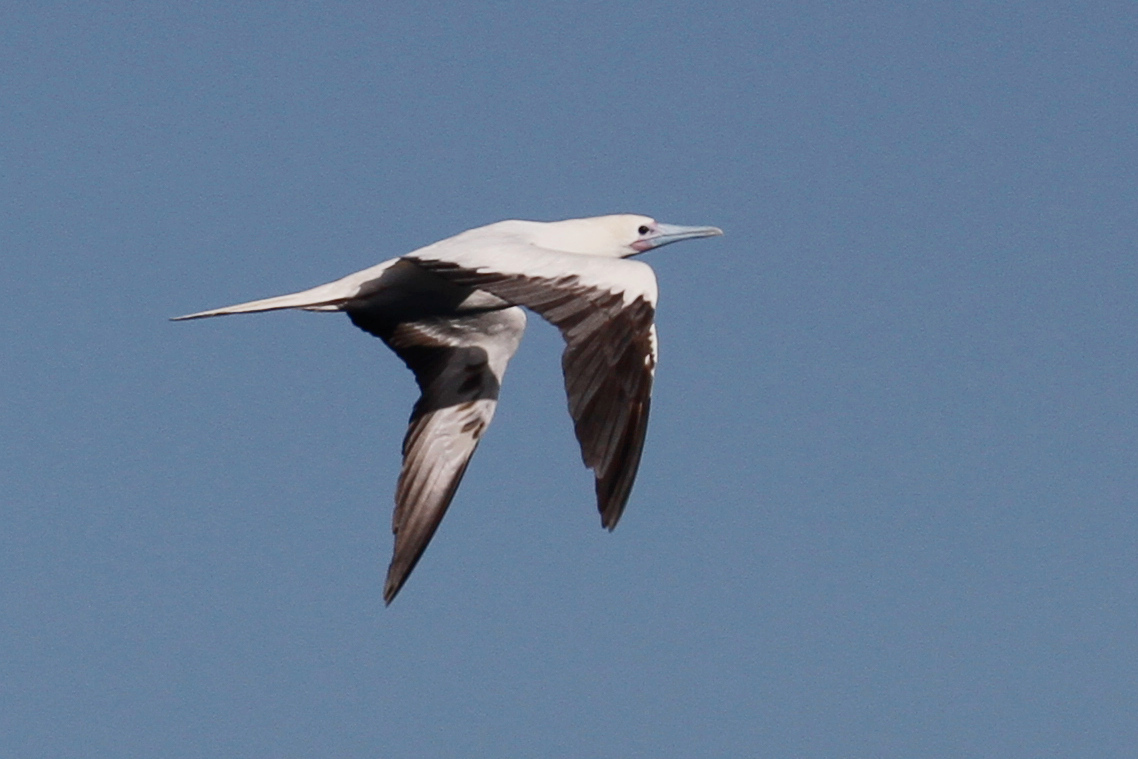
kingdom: Animalia
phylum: Chordata
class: Aves
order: Suliformes
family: Sulidae
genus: Sula
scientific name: Sula sula
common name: Red-footed booby
